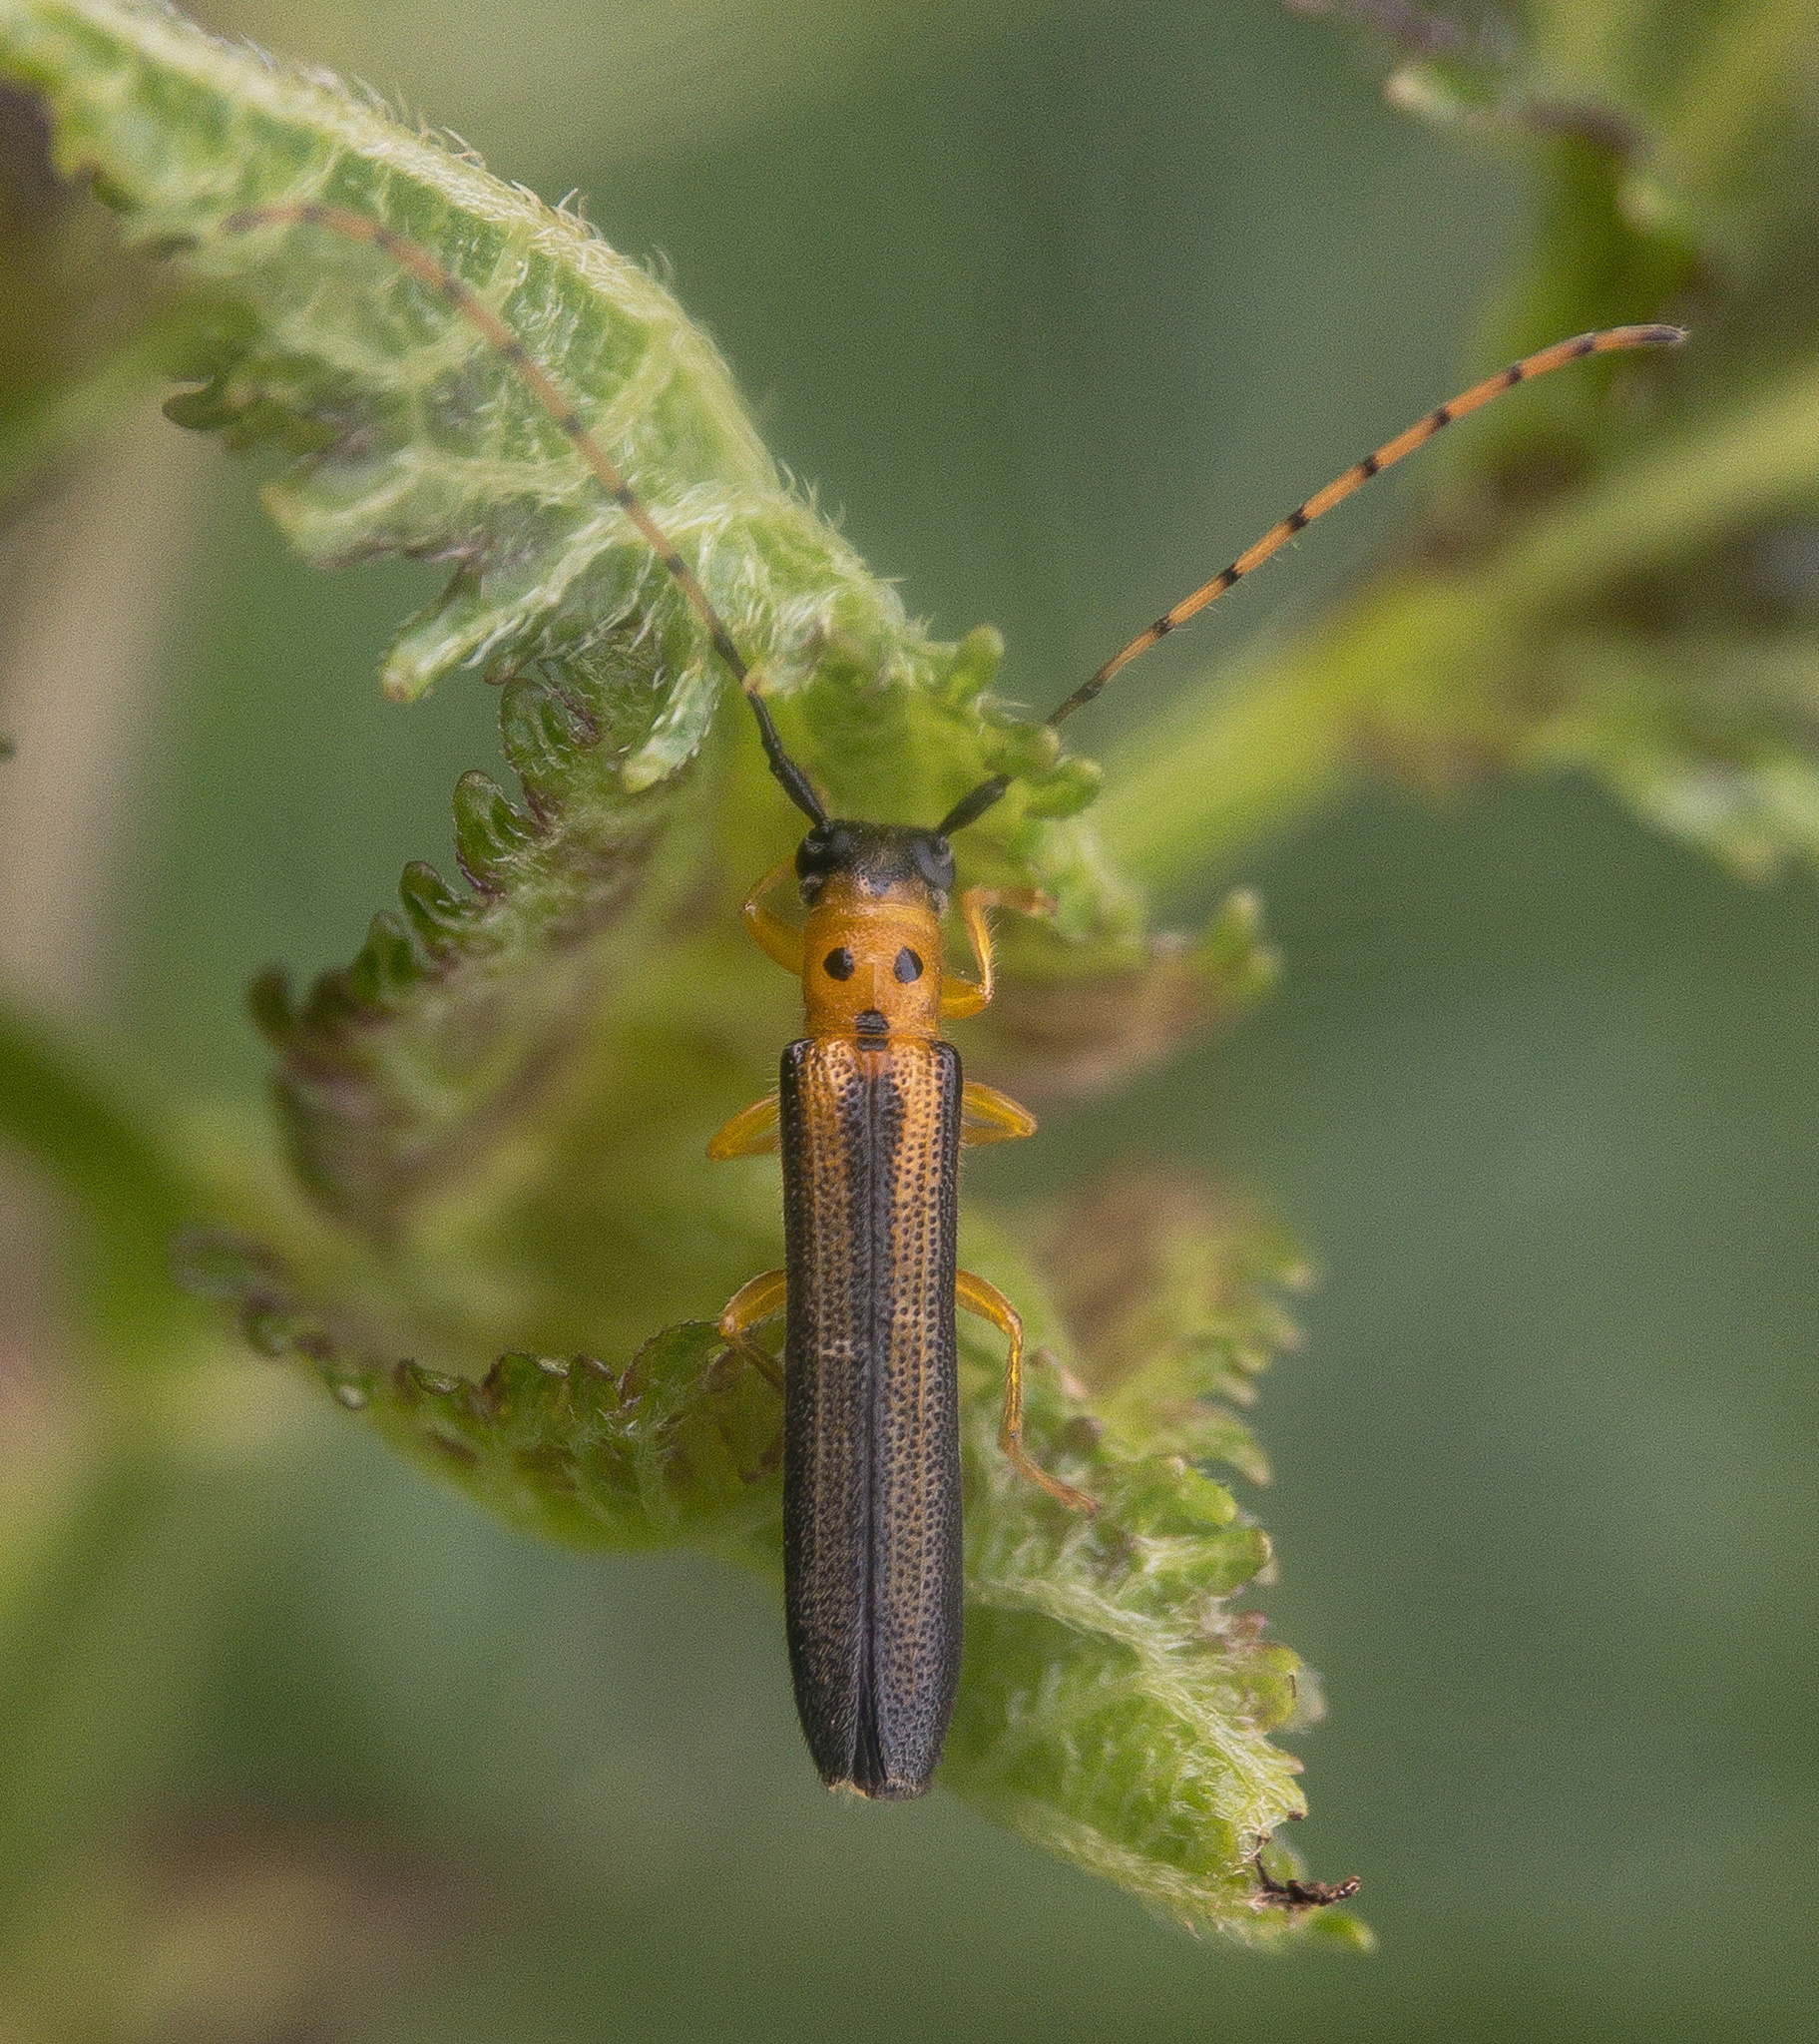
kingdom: Animalia
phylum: Arthropoda
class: Insecta
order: Coleoptera
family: Cerambycidae
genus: Oberea
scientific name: Oberea tripunctata
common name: Dogwood twig borer
